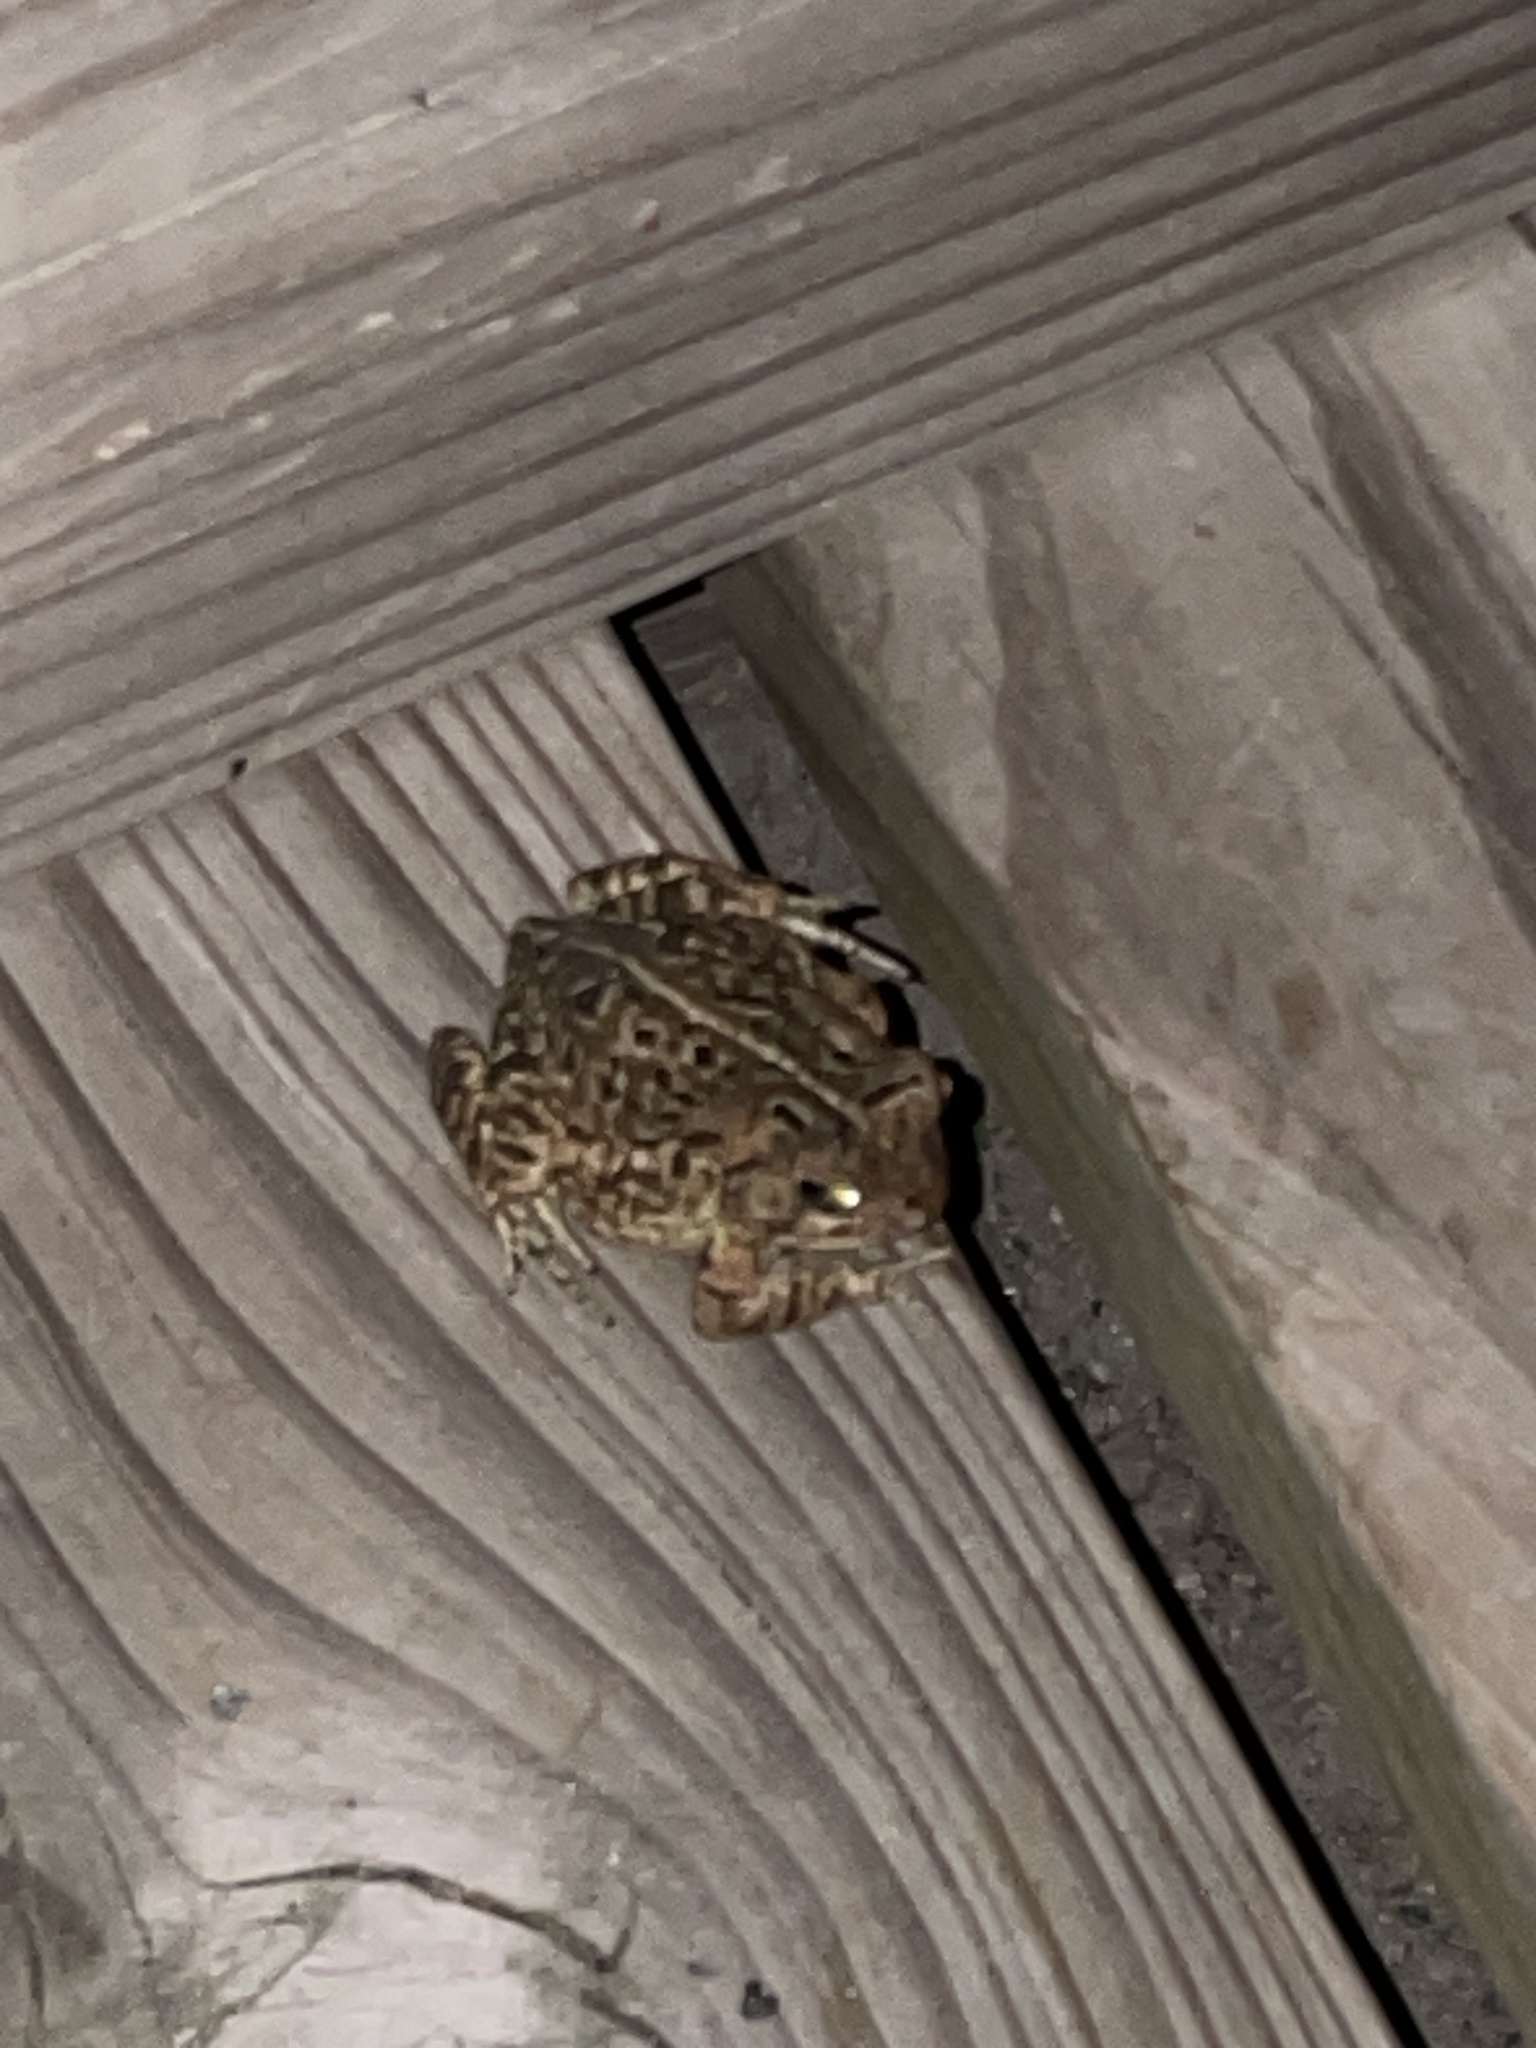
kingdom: Animalia
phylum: Chordata
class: Amphibia
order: Anura
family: Bufonidae
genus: Anaxyrus
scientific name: Anaxyrus fowleri
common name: Fowler's toad
